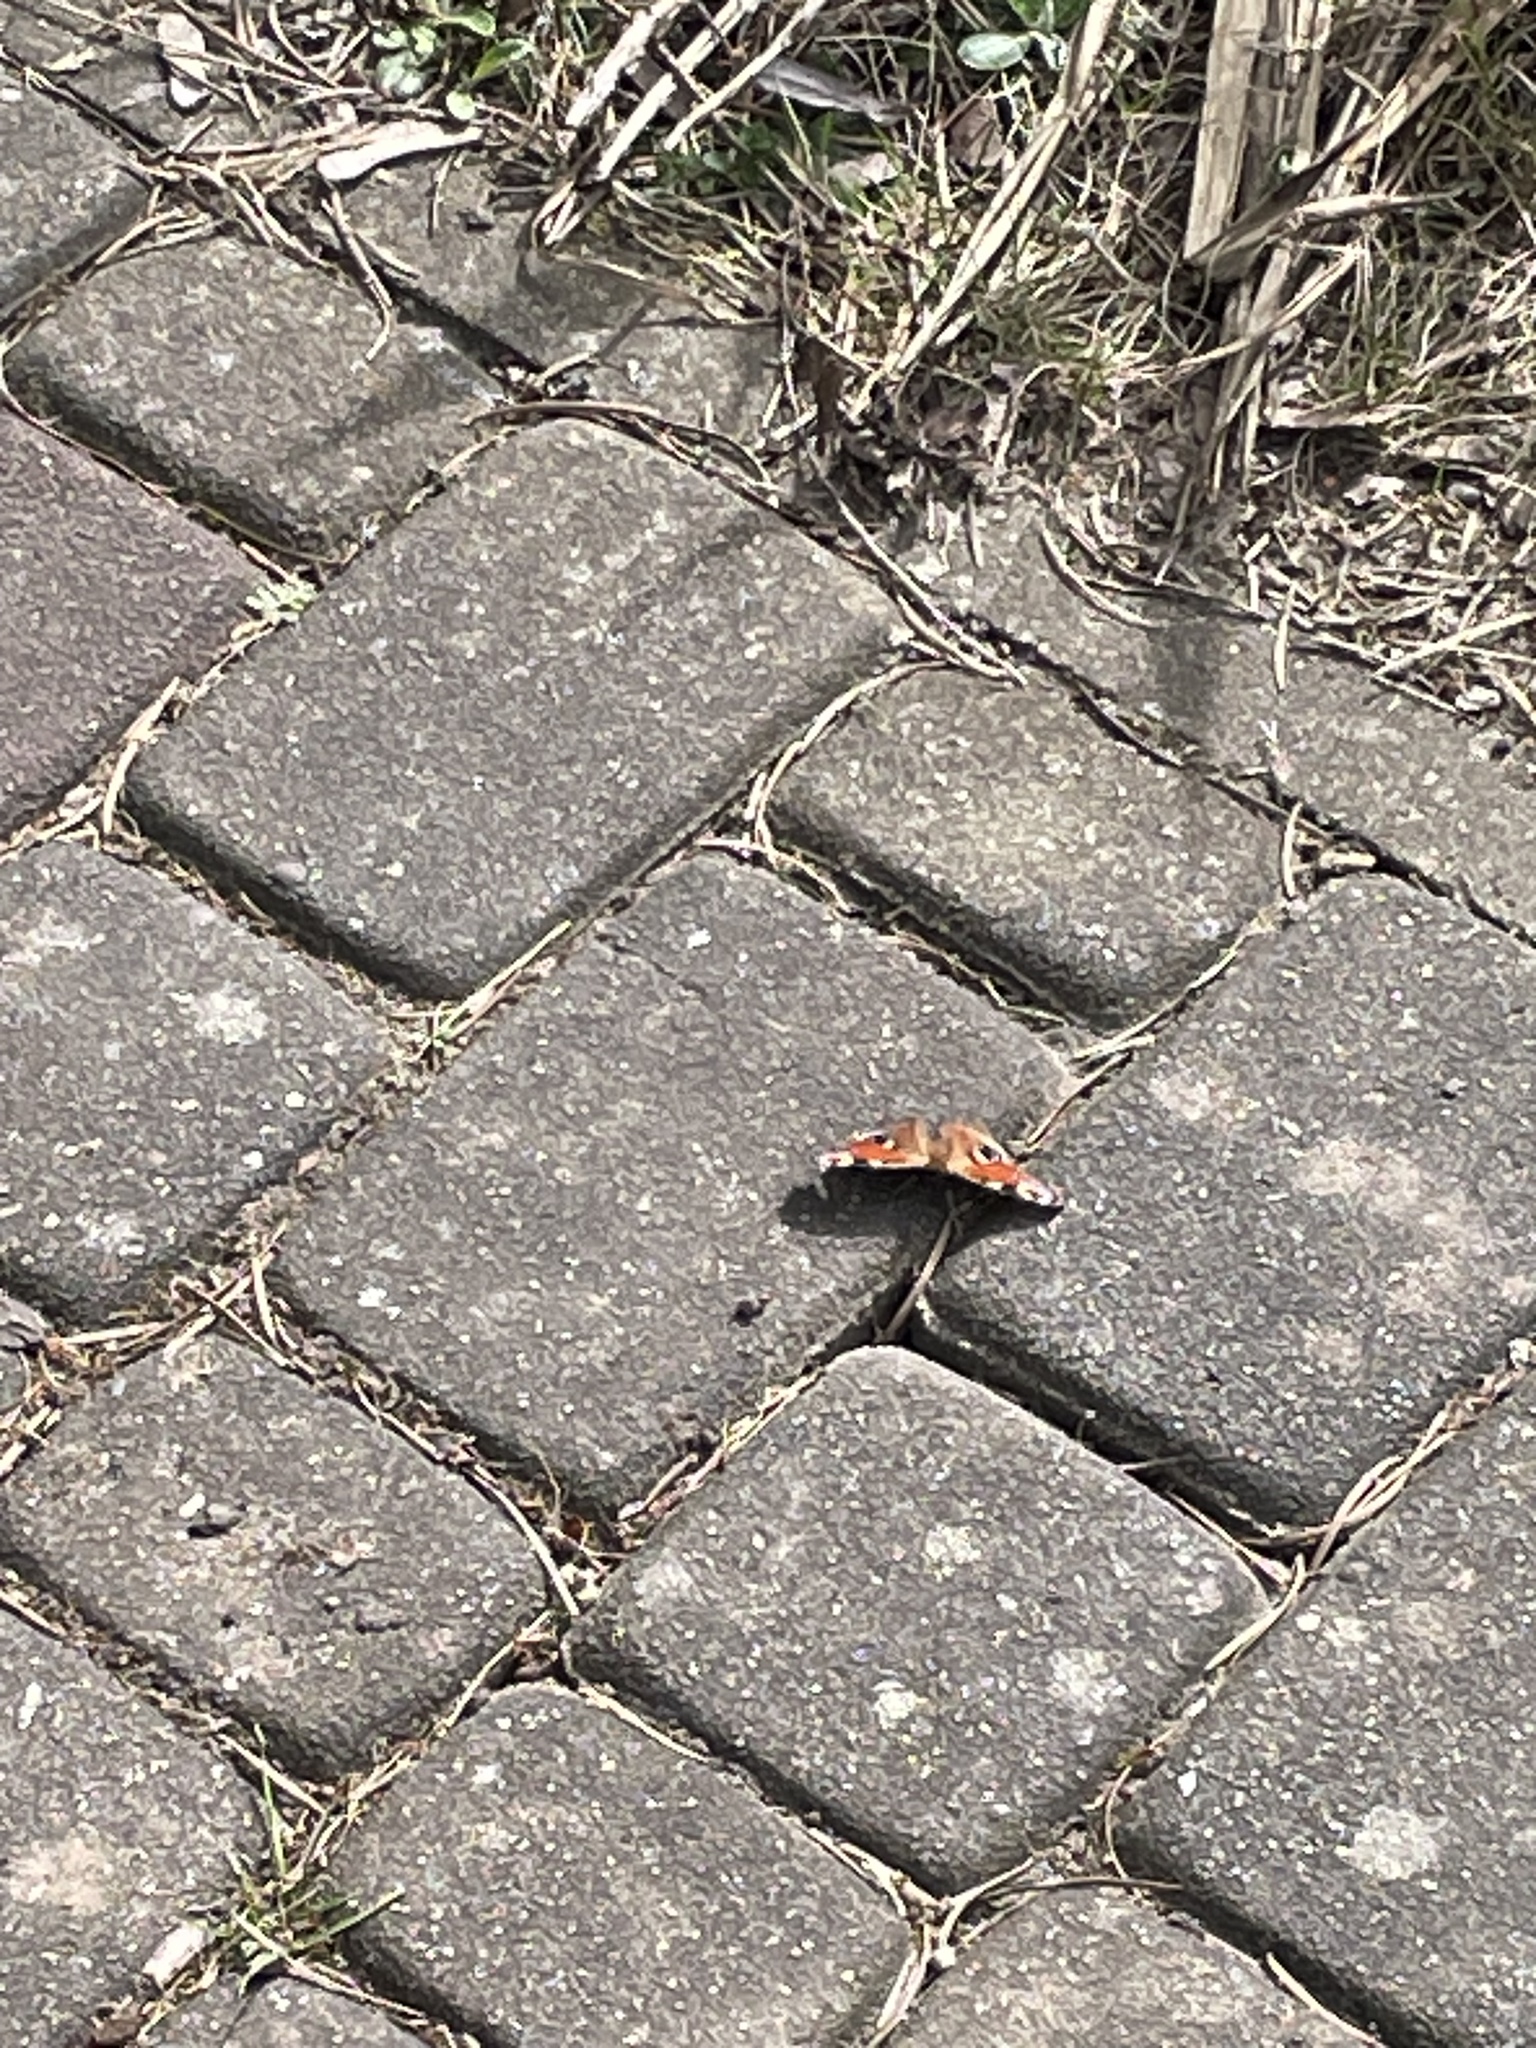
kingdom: Animalia
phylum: Arthropoda
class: Insecta
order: Lepidoptera
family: Nymphalidae
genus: Aglais
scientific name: Aglais io
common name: Peacock
